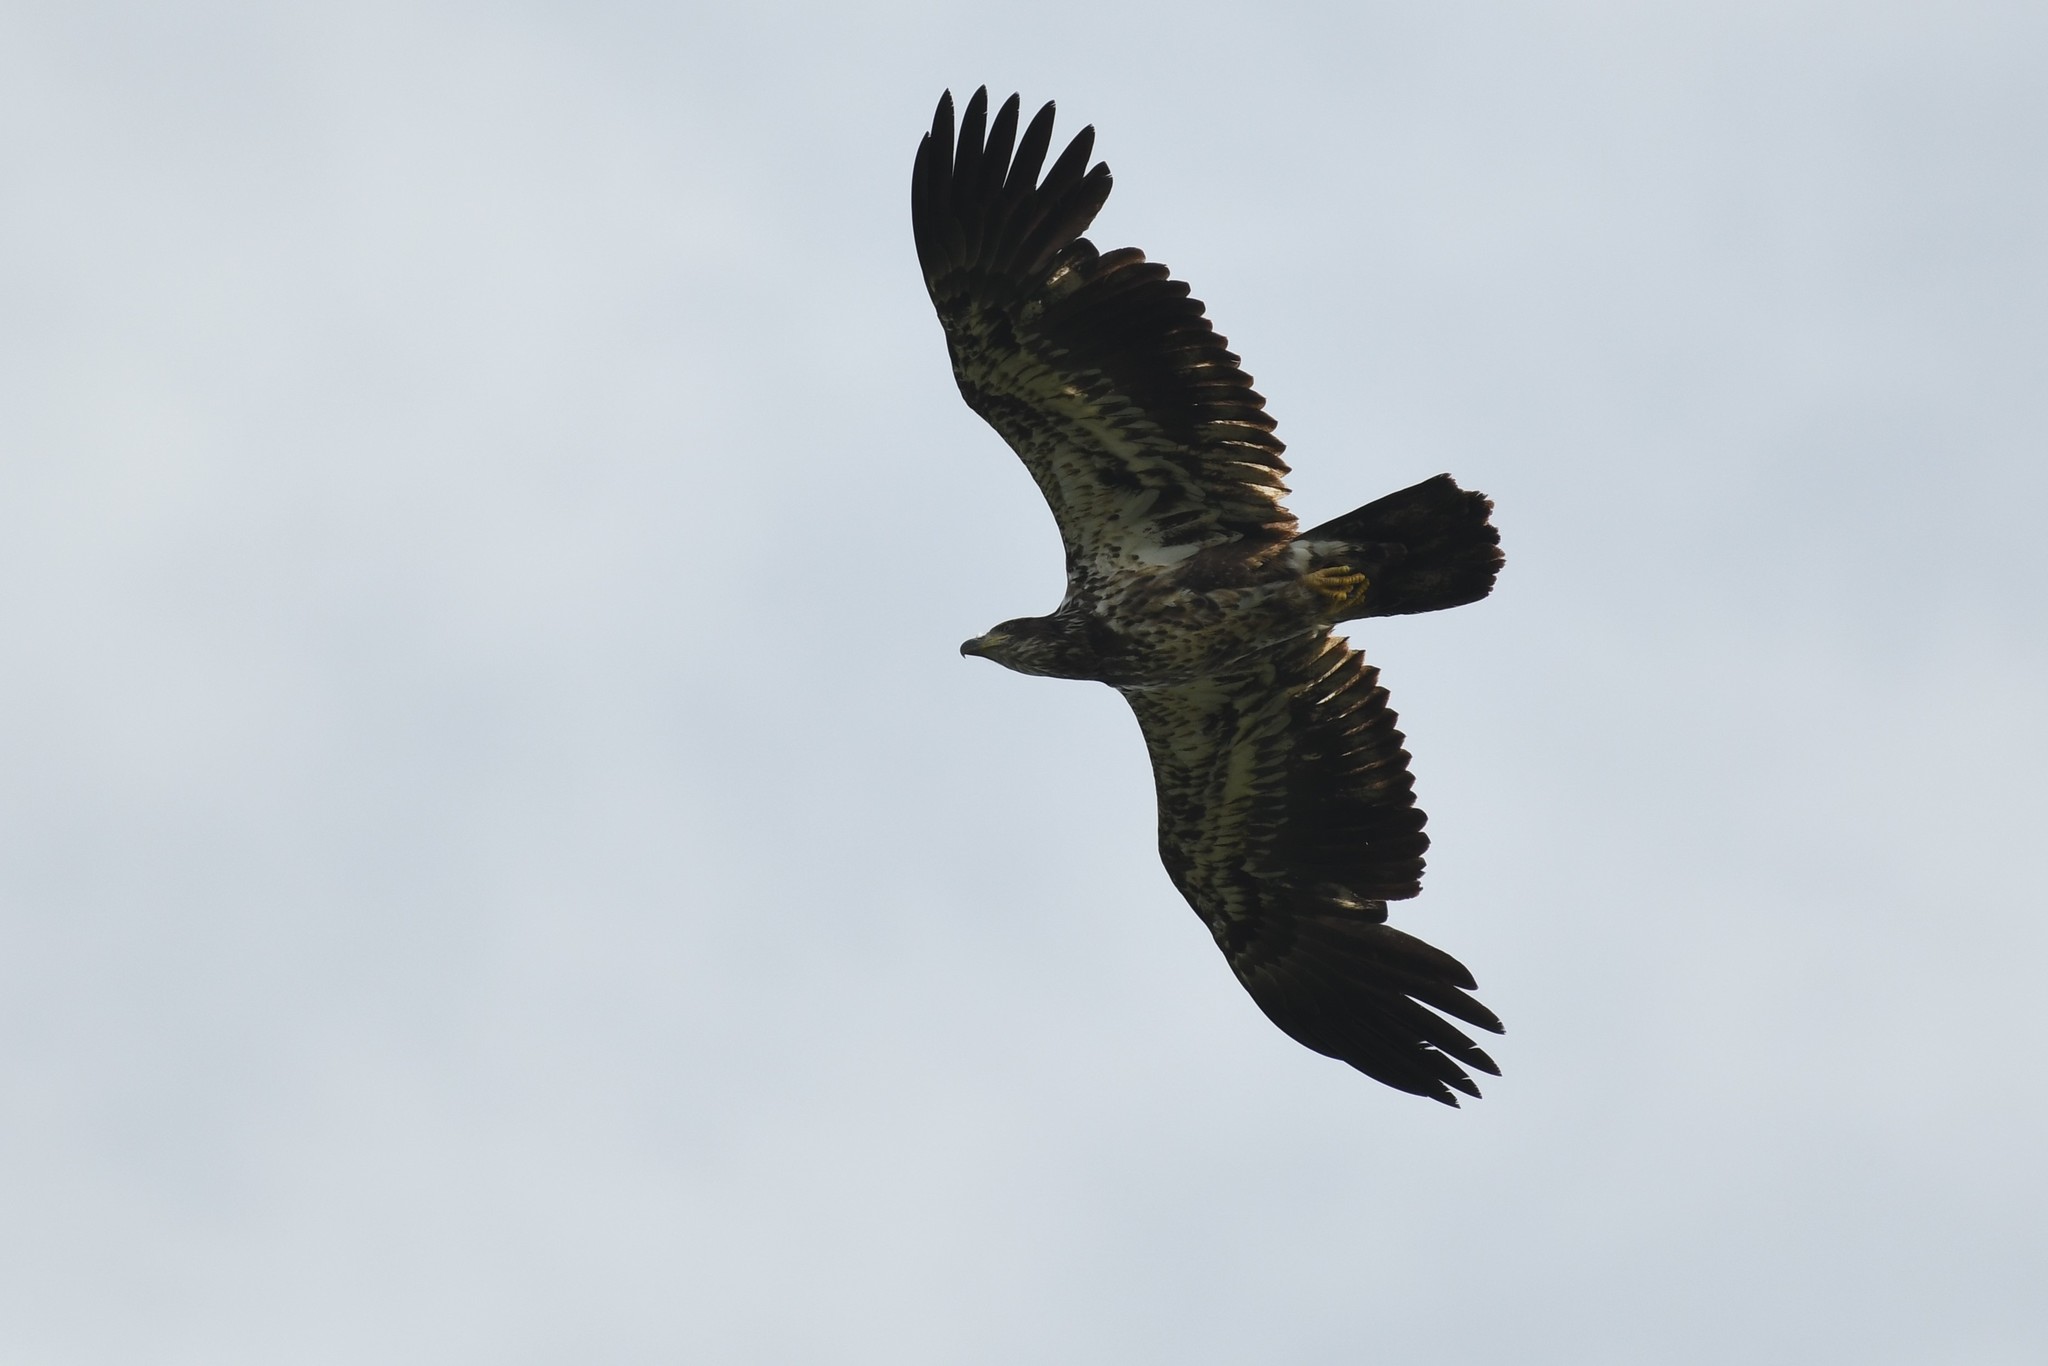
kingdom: Animalia
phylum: Chordata
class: Aves
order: Accipitriformes
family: Accipitridae
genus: Haliaeetus
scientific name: Haliaeetus leucocephalus
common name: Bald eagle
